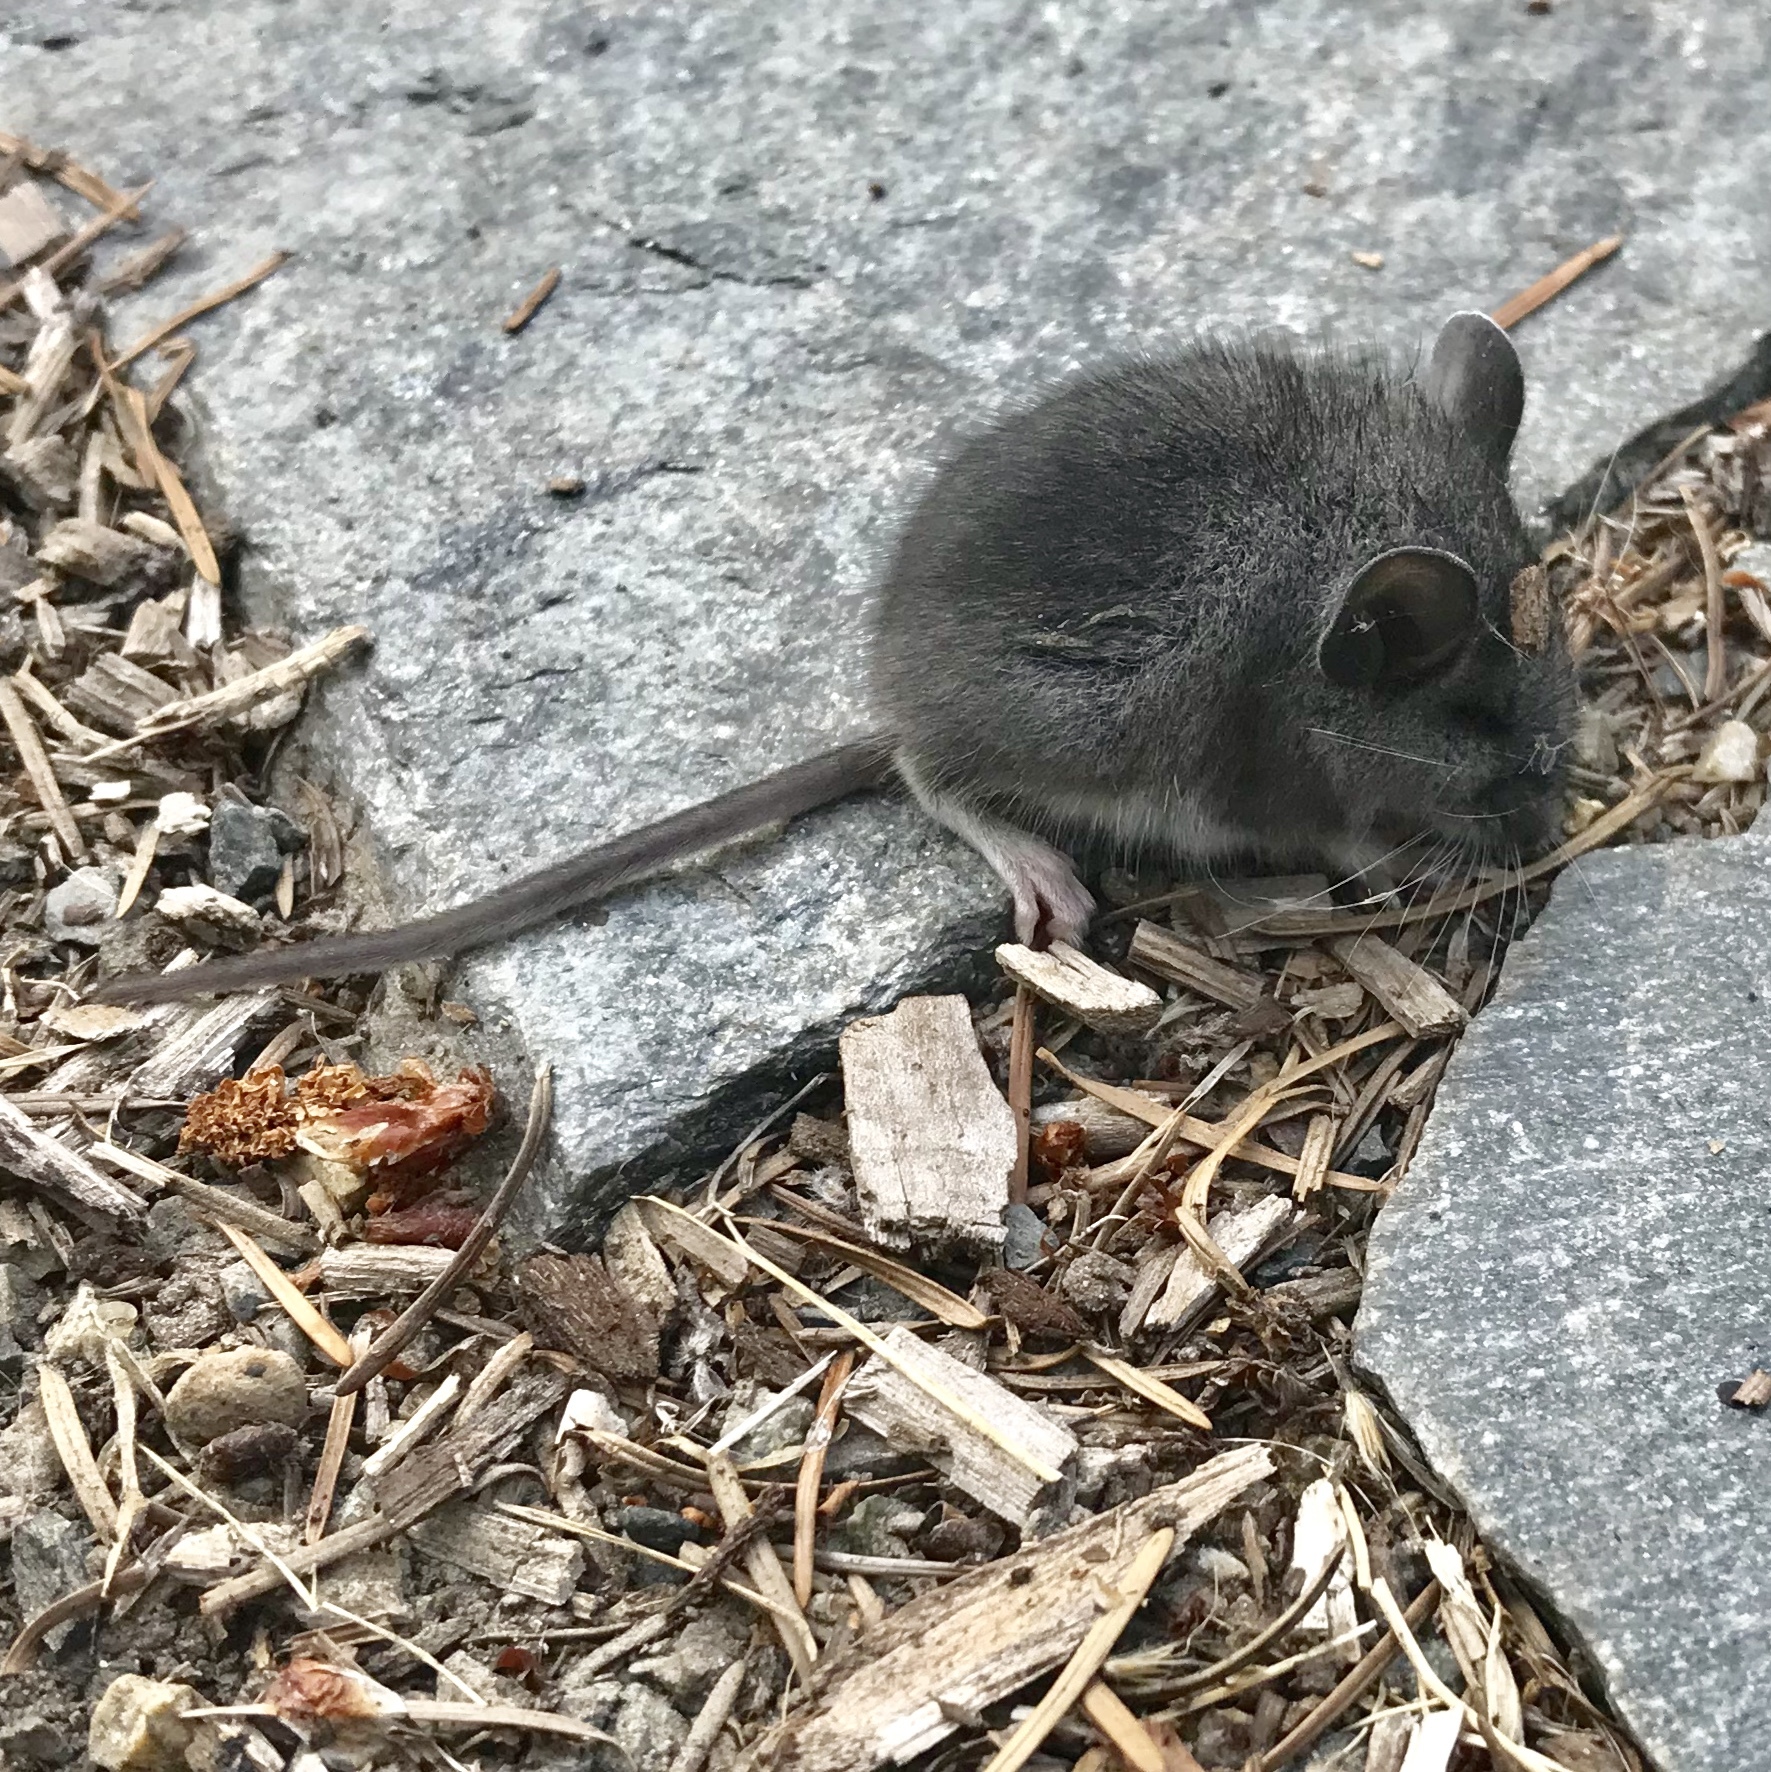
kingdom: Animalia
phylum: Chordata
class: Mammalia
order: Rodentia
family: Cricetidae
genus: Peromyscus
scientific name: Peromyscus maniculatus
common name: Deer mouse
